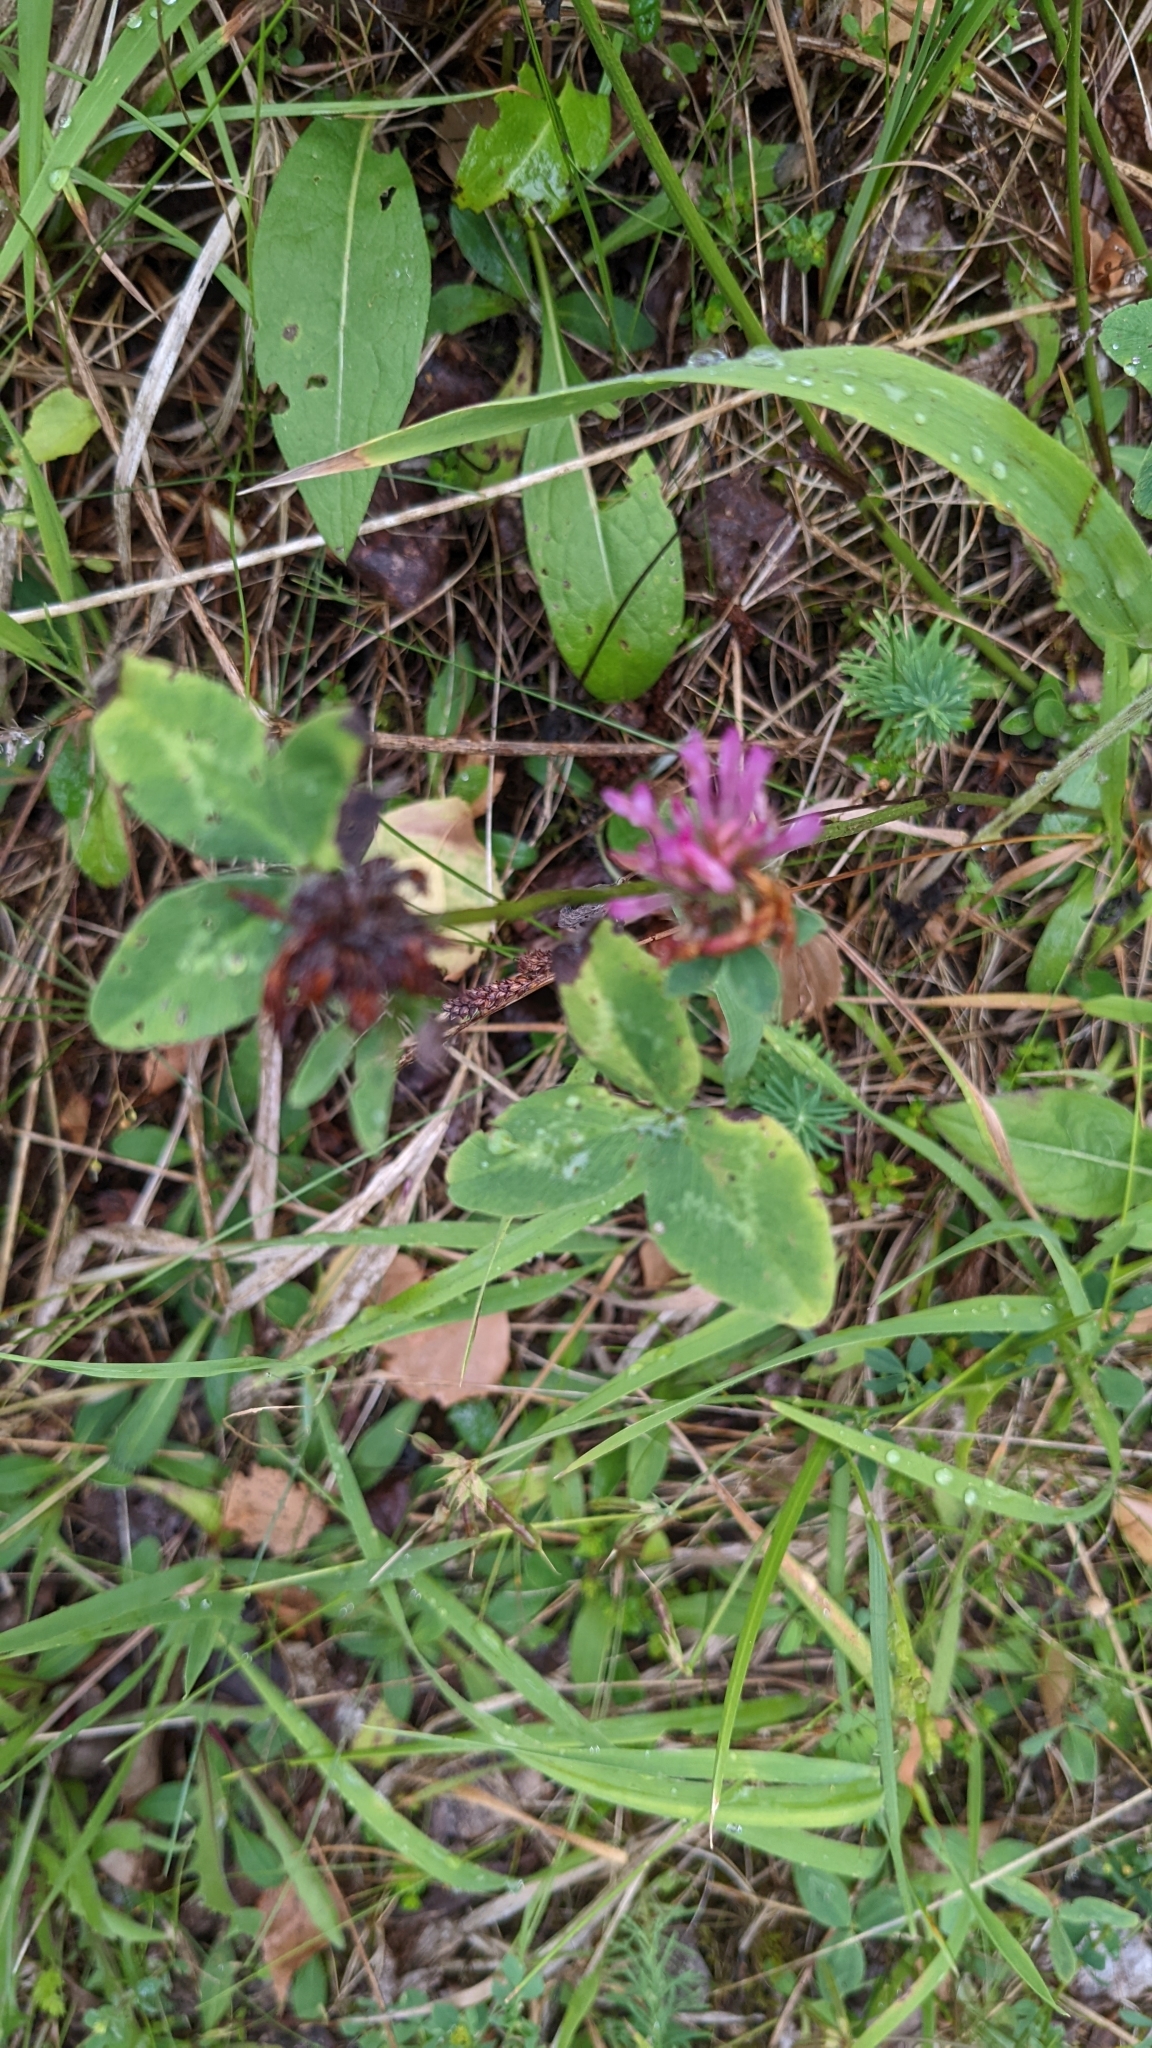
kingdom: Plantae
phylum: Tracheophyta
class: Magnoliopsida
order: Fabales
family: Fabaceae
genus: Trifolium
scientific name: Trifolium pratense
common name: Red clover
